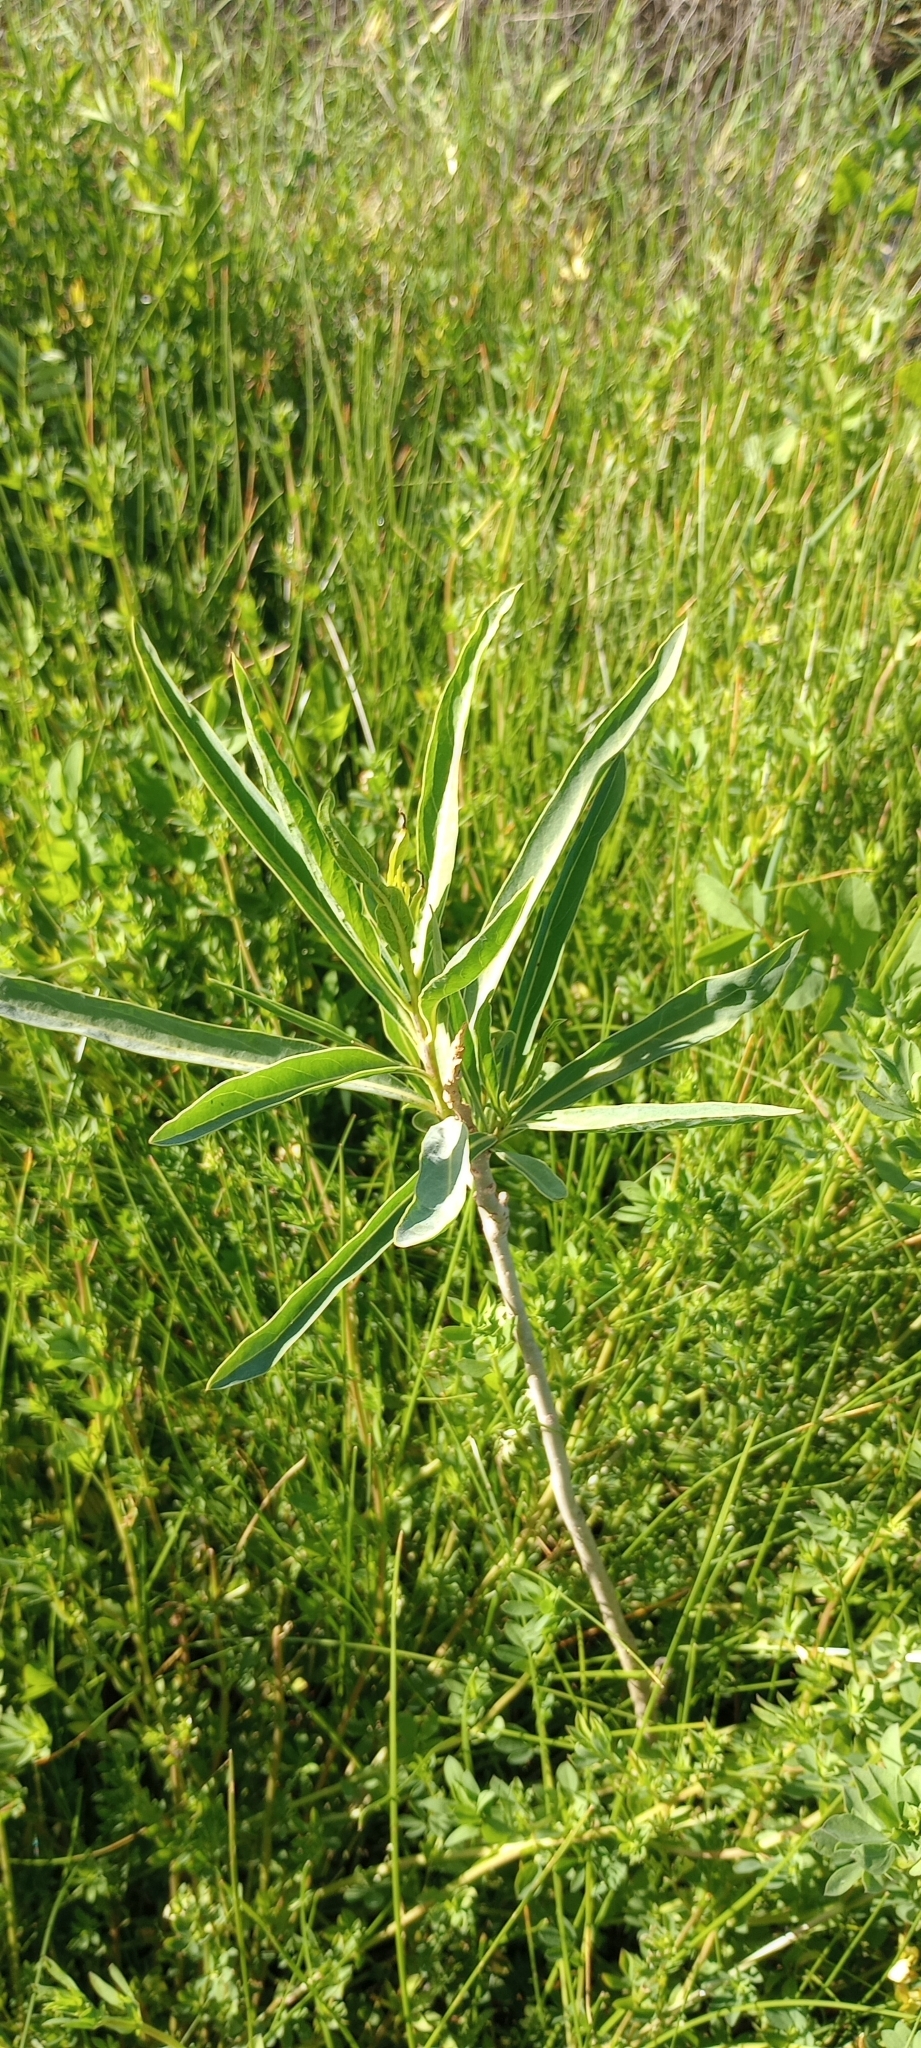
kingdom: Plantae
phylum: Tracheophyta
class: Magnoliopsida
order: Solanales
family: Solanaceae
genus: Solanum
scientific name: Solanum glaucophyllum
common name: Waxyleaf nightshade
